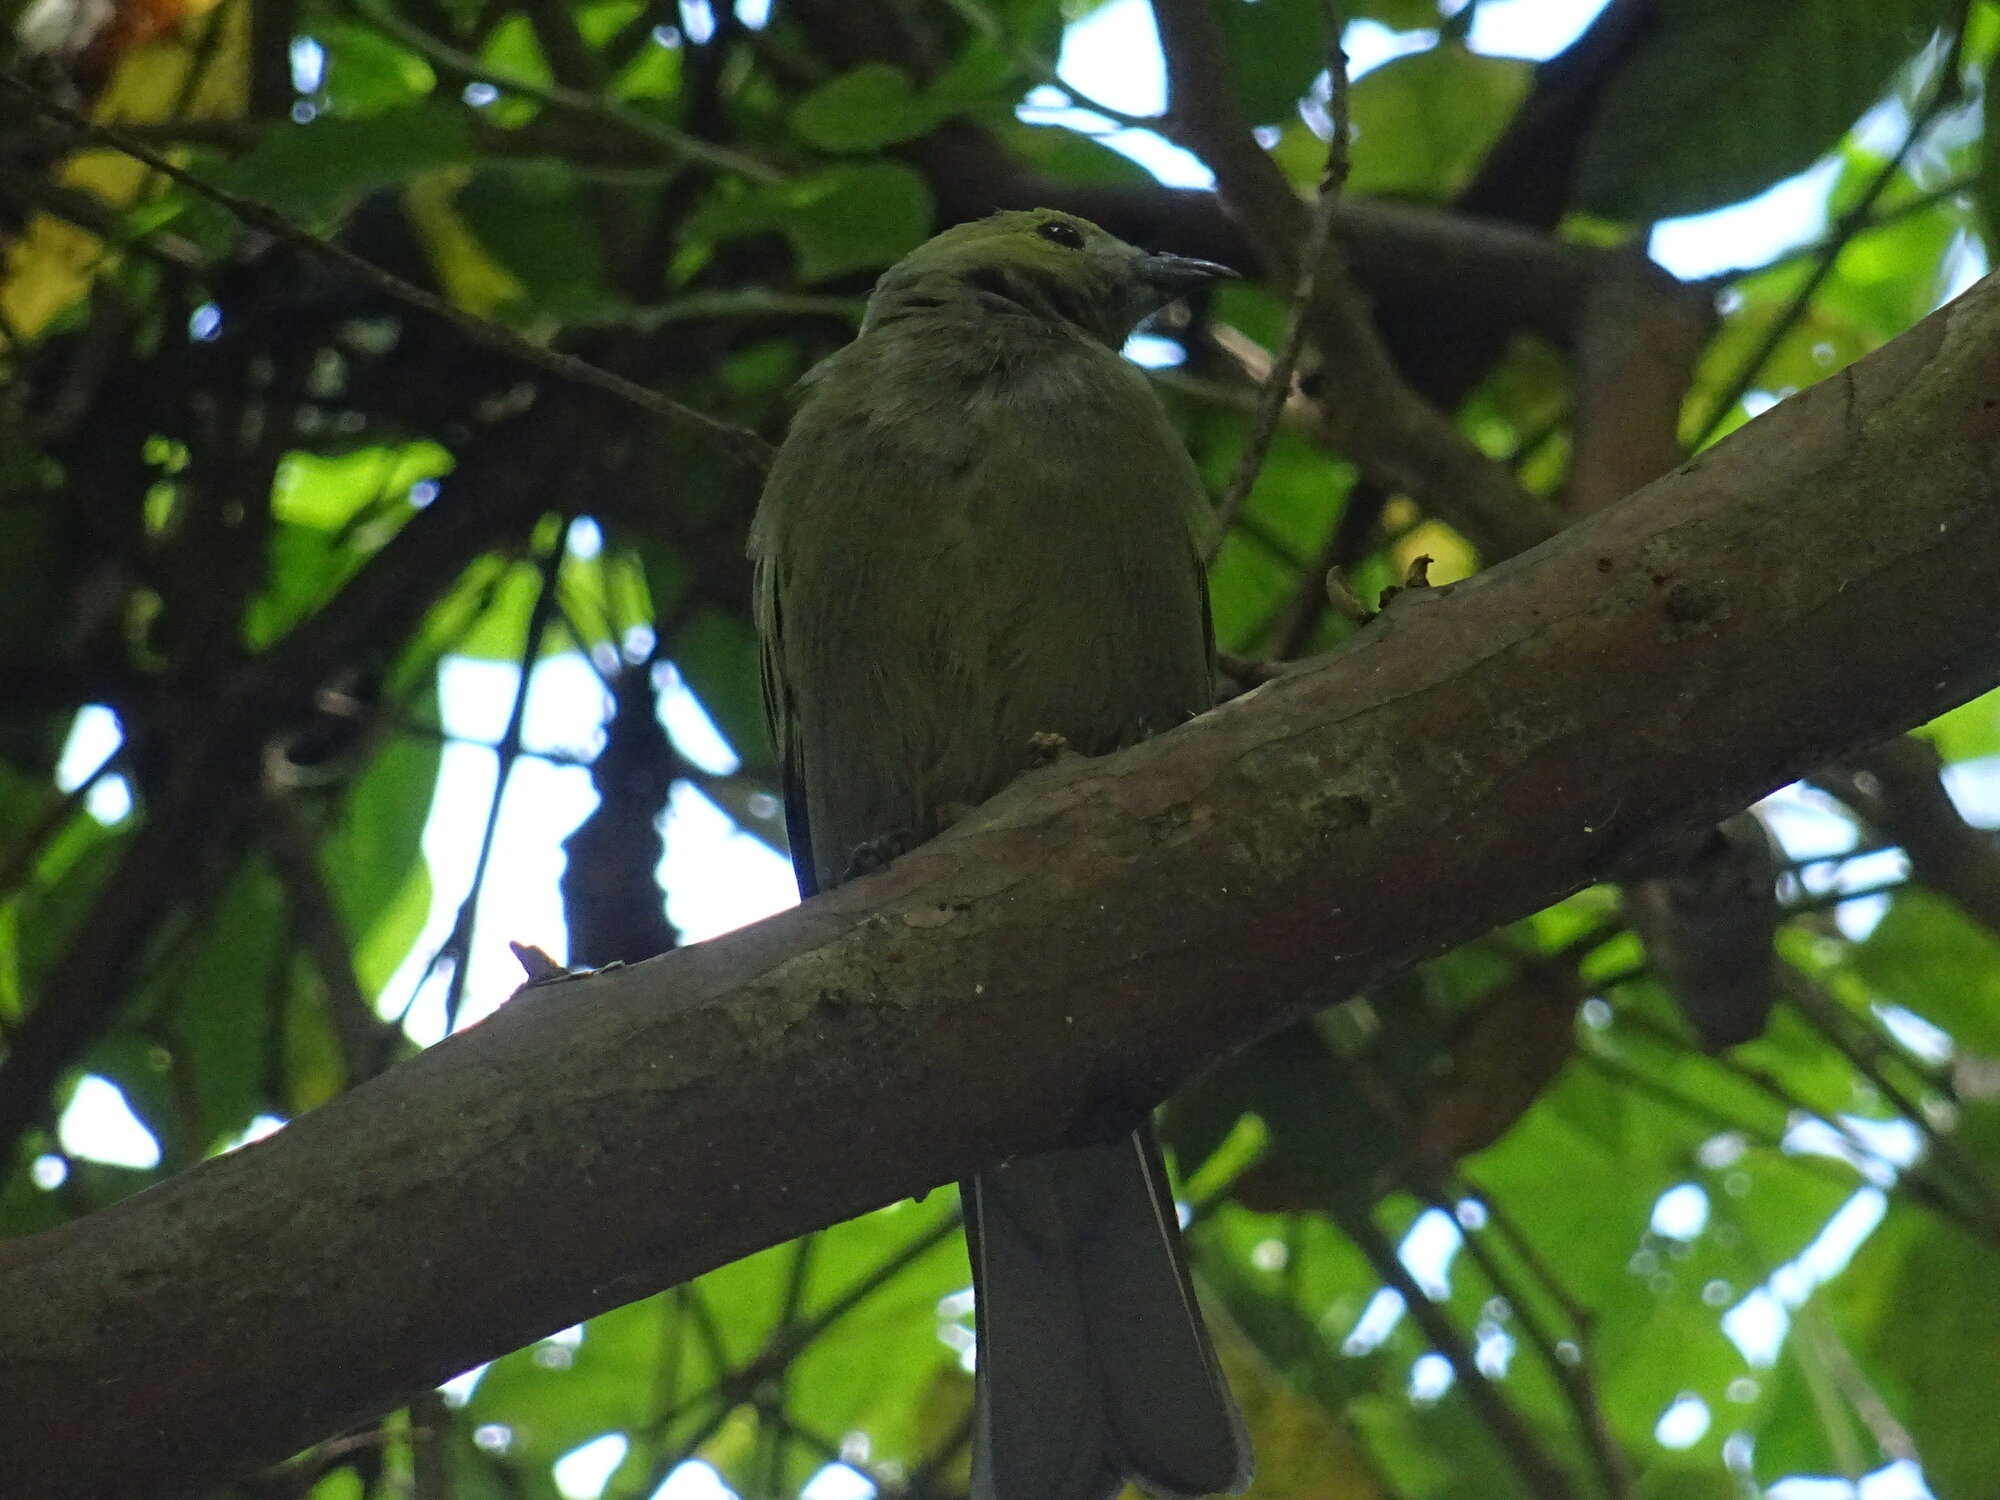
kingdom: Animalia
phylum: Chordata
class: Aves
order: Passeriformes
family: Thraupidae
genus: Thraupis
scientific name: Thraupis palmarum
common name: Palm tanager
